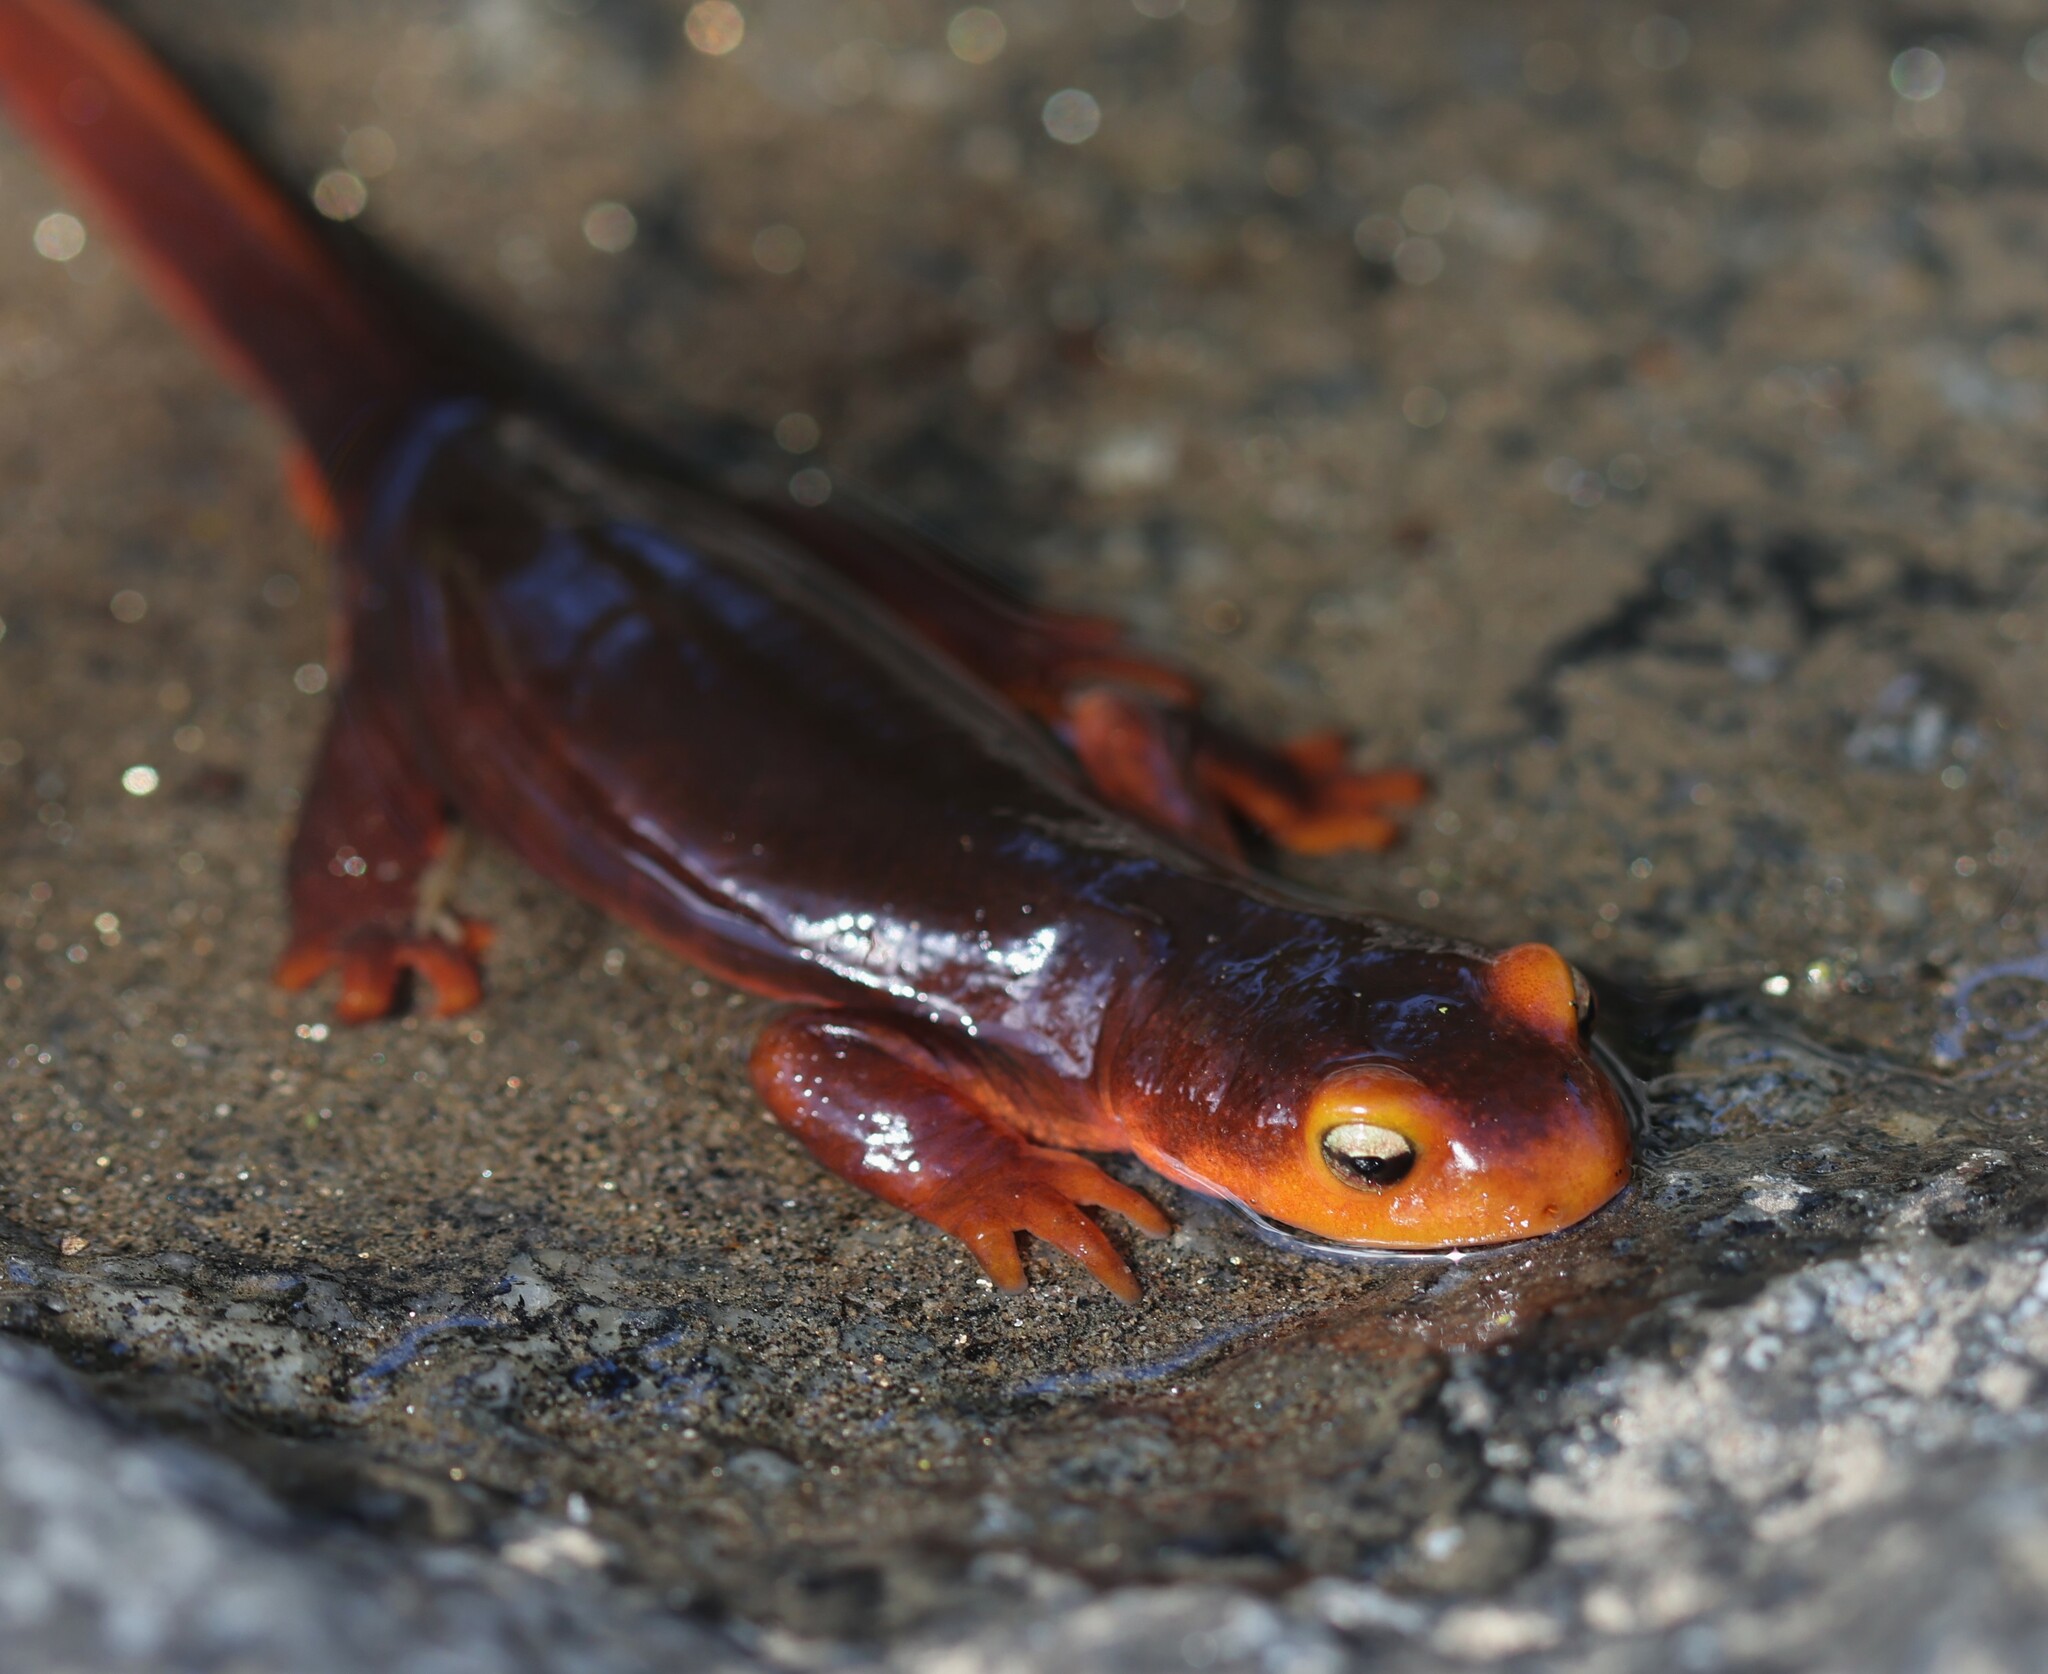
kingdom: Animalia
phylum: Chordata
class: Amphibia
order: Caudata
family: Salamandridae
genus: Taricha
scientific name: Taricha sierrae
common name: Sierra newt
